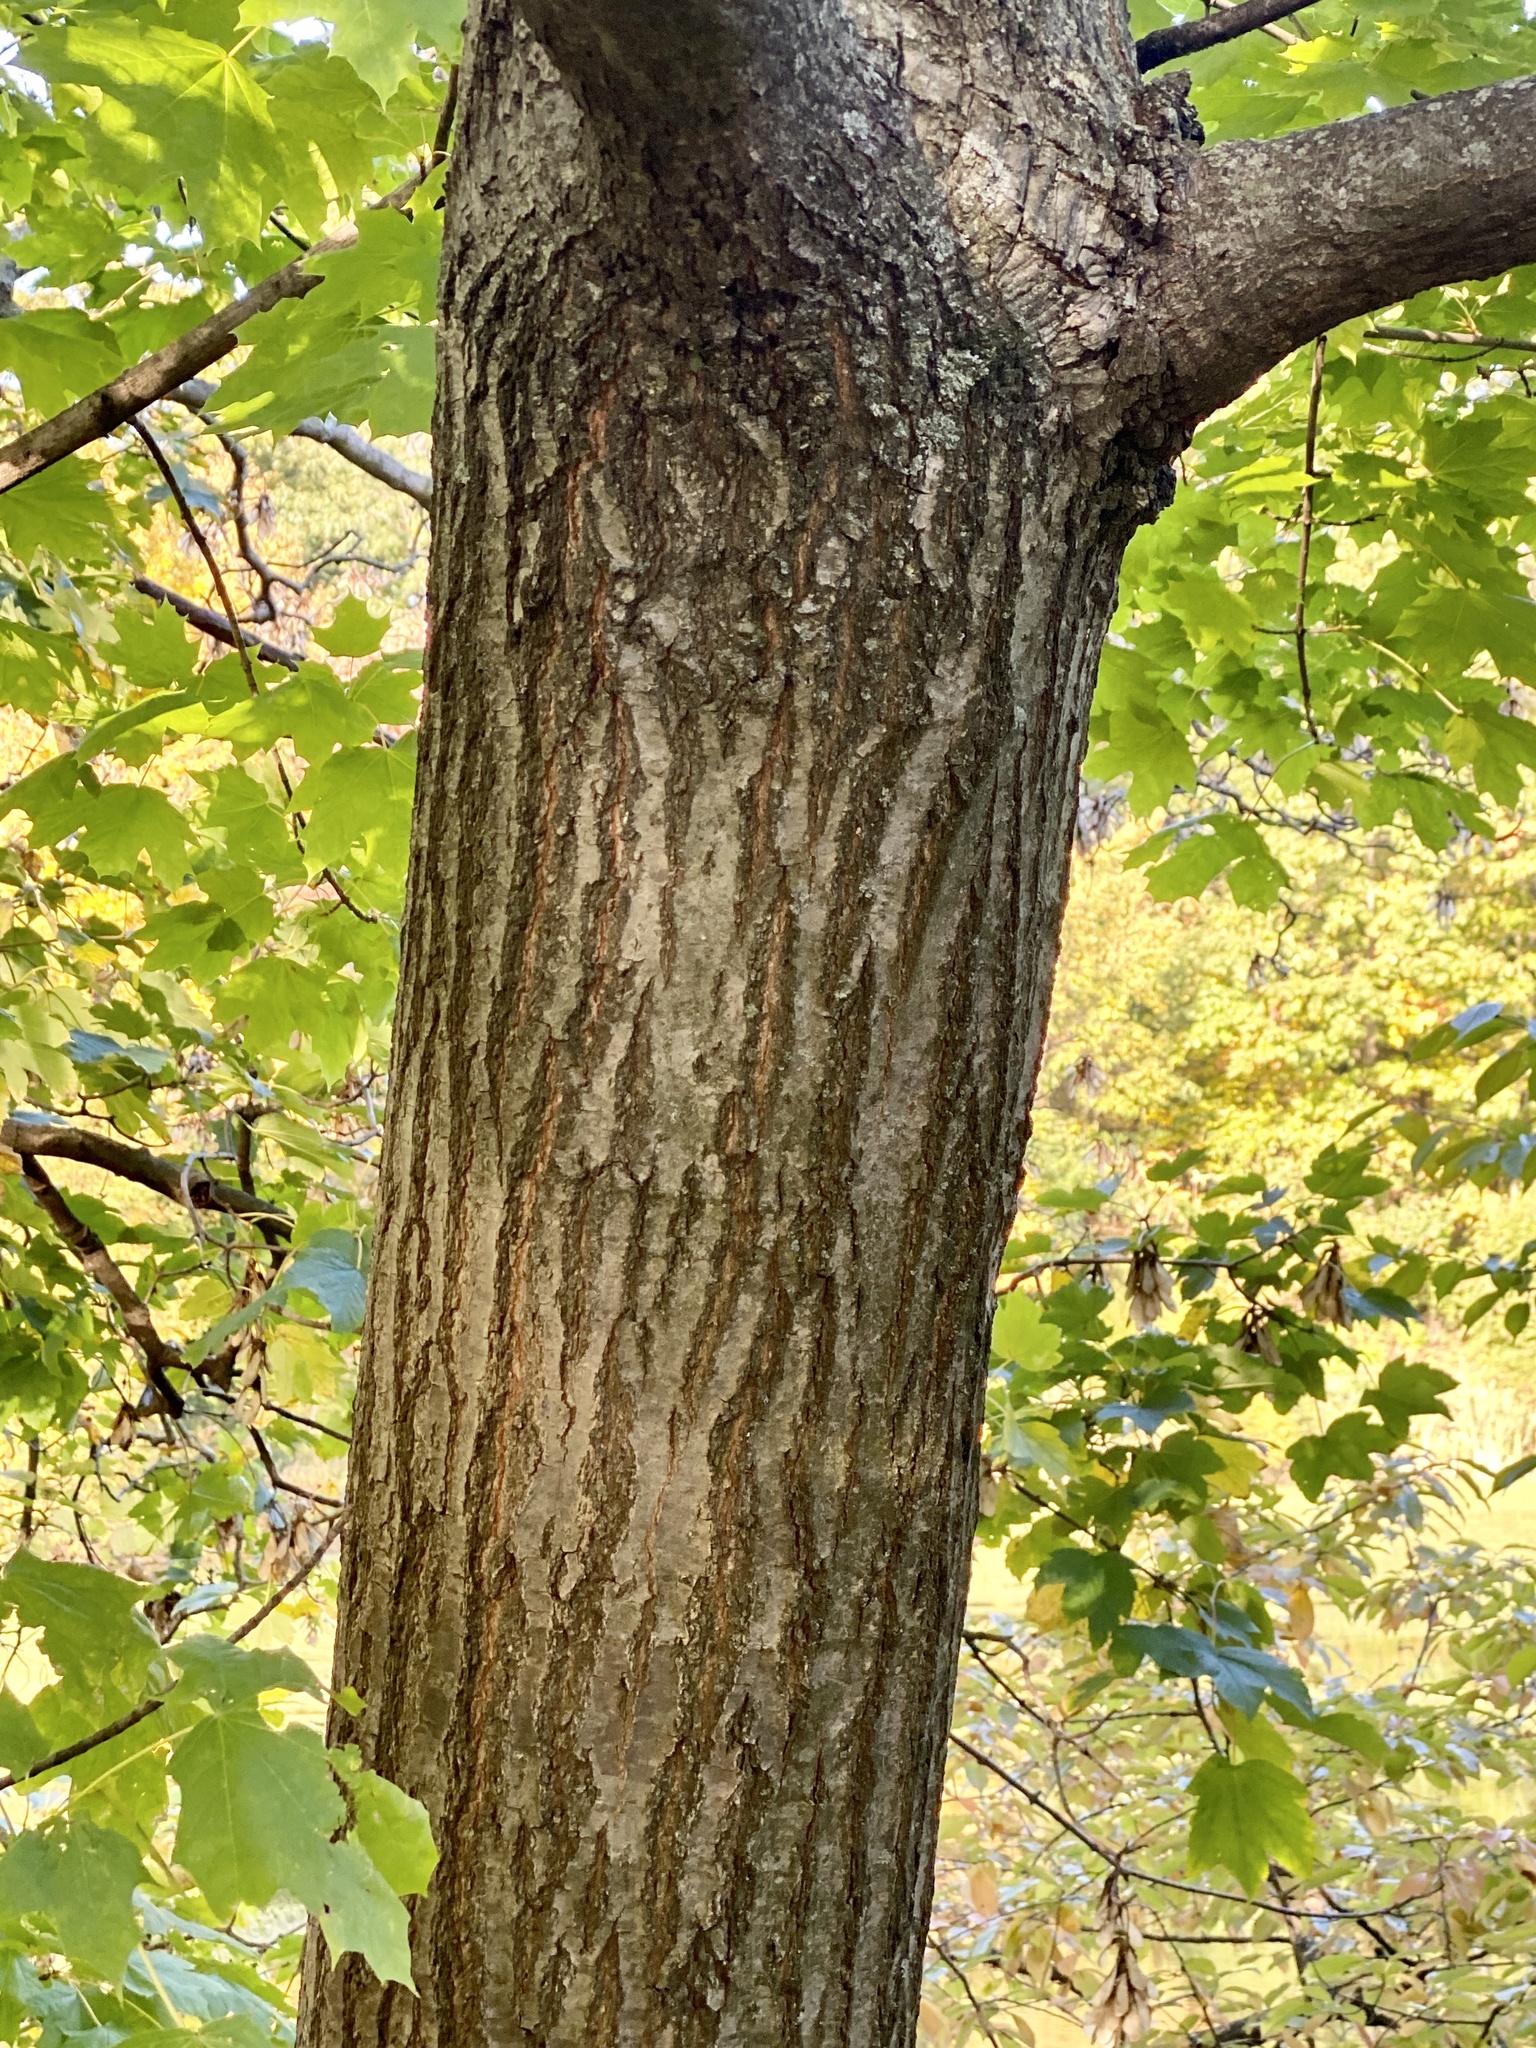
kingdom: Plantae
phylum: Tracheophyta
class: Magnoliopsida
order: Fagales
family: Fagaceae
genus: Quercus
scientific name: Quercus rubra
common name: Red oak
